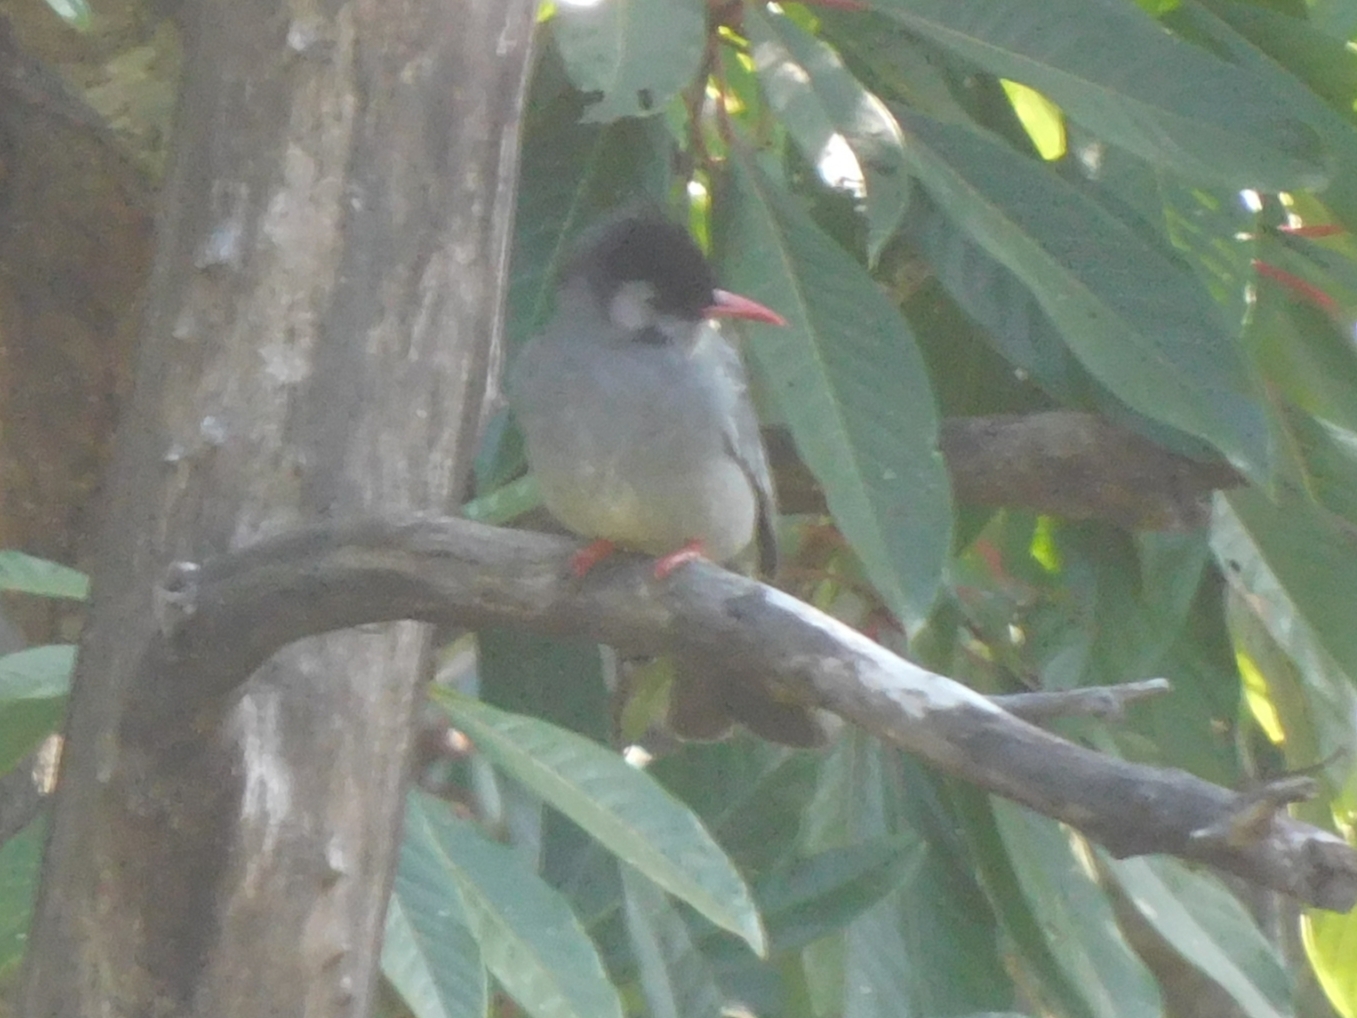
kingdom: Animalia
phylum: Chordata
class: Aves
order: Passeriformes
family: Pycnonotidae
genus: Hypsipetes
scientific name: Hypsipetes leucocephalus
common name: Black bulbul
